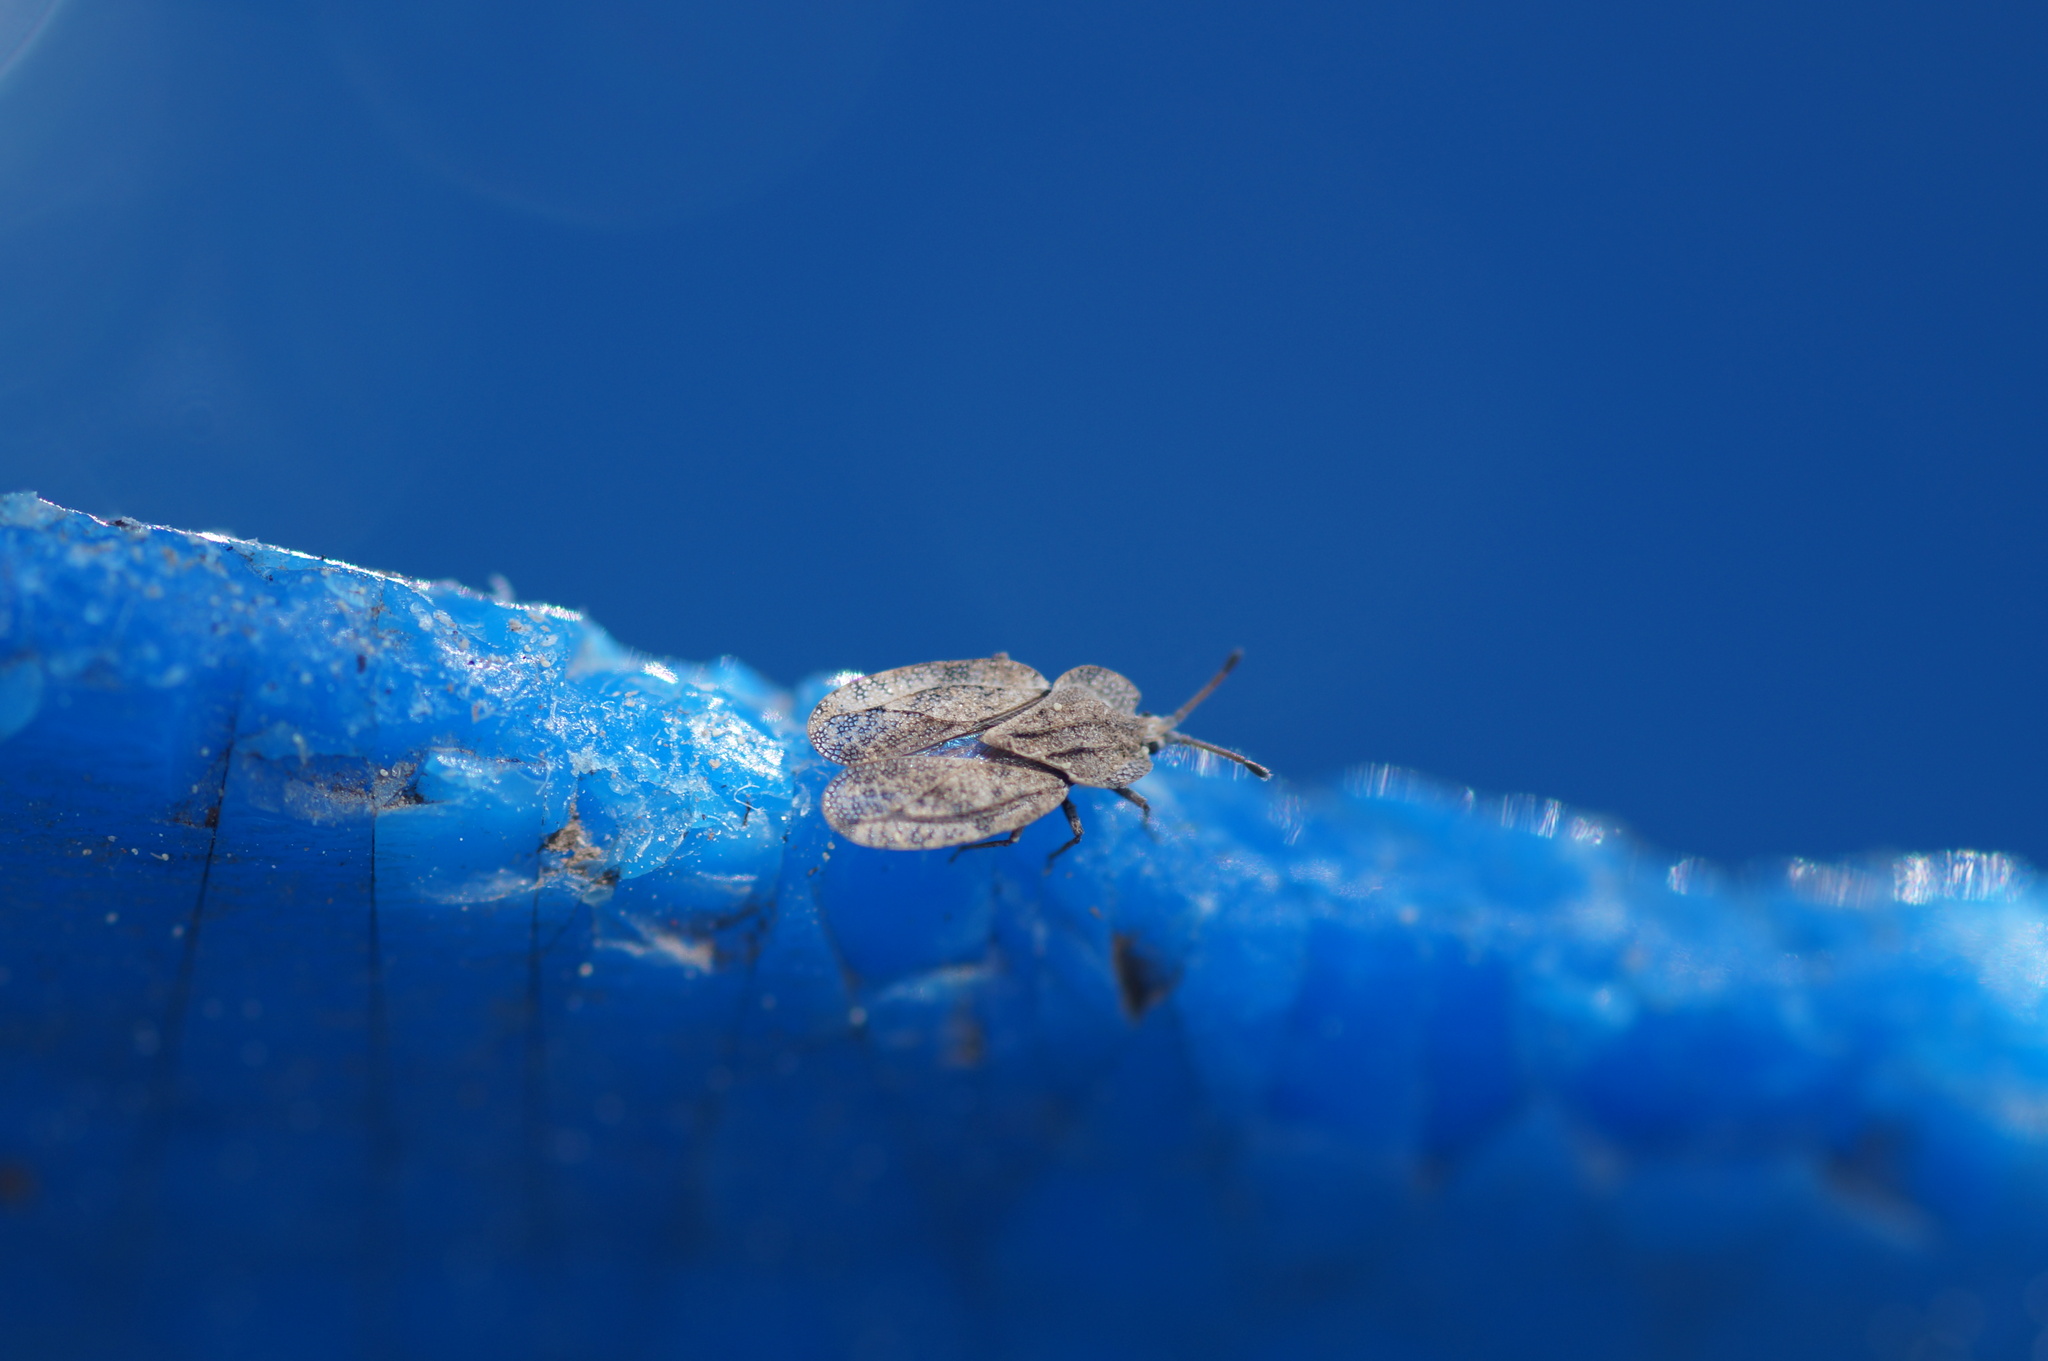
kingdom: Animalia
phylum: Arthropoda
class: Insecta
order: Hemiptera
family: Tingidae
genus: Tingis
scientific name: Tingis ampliata
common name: Creeping thistle lacebug
